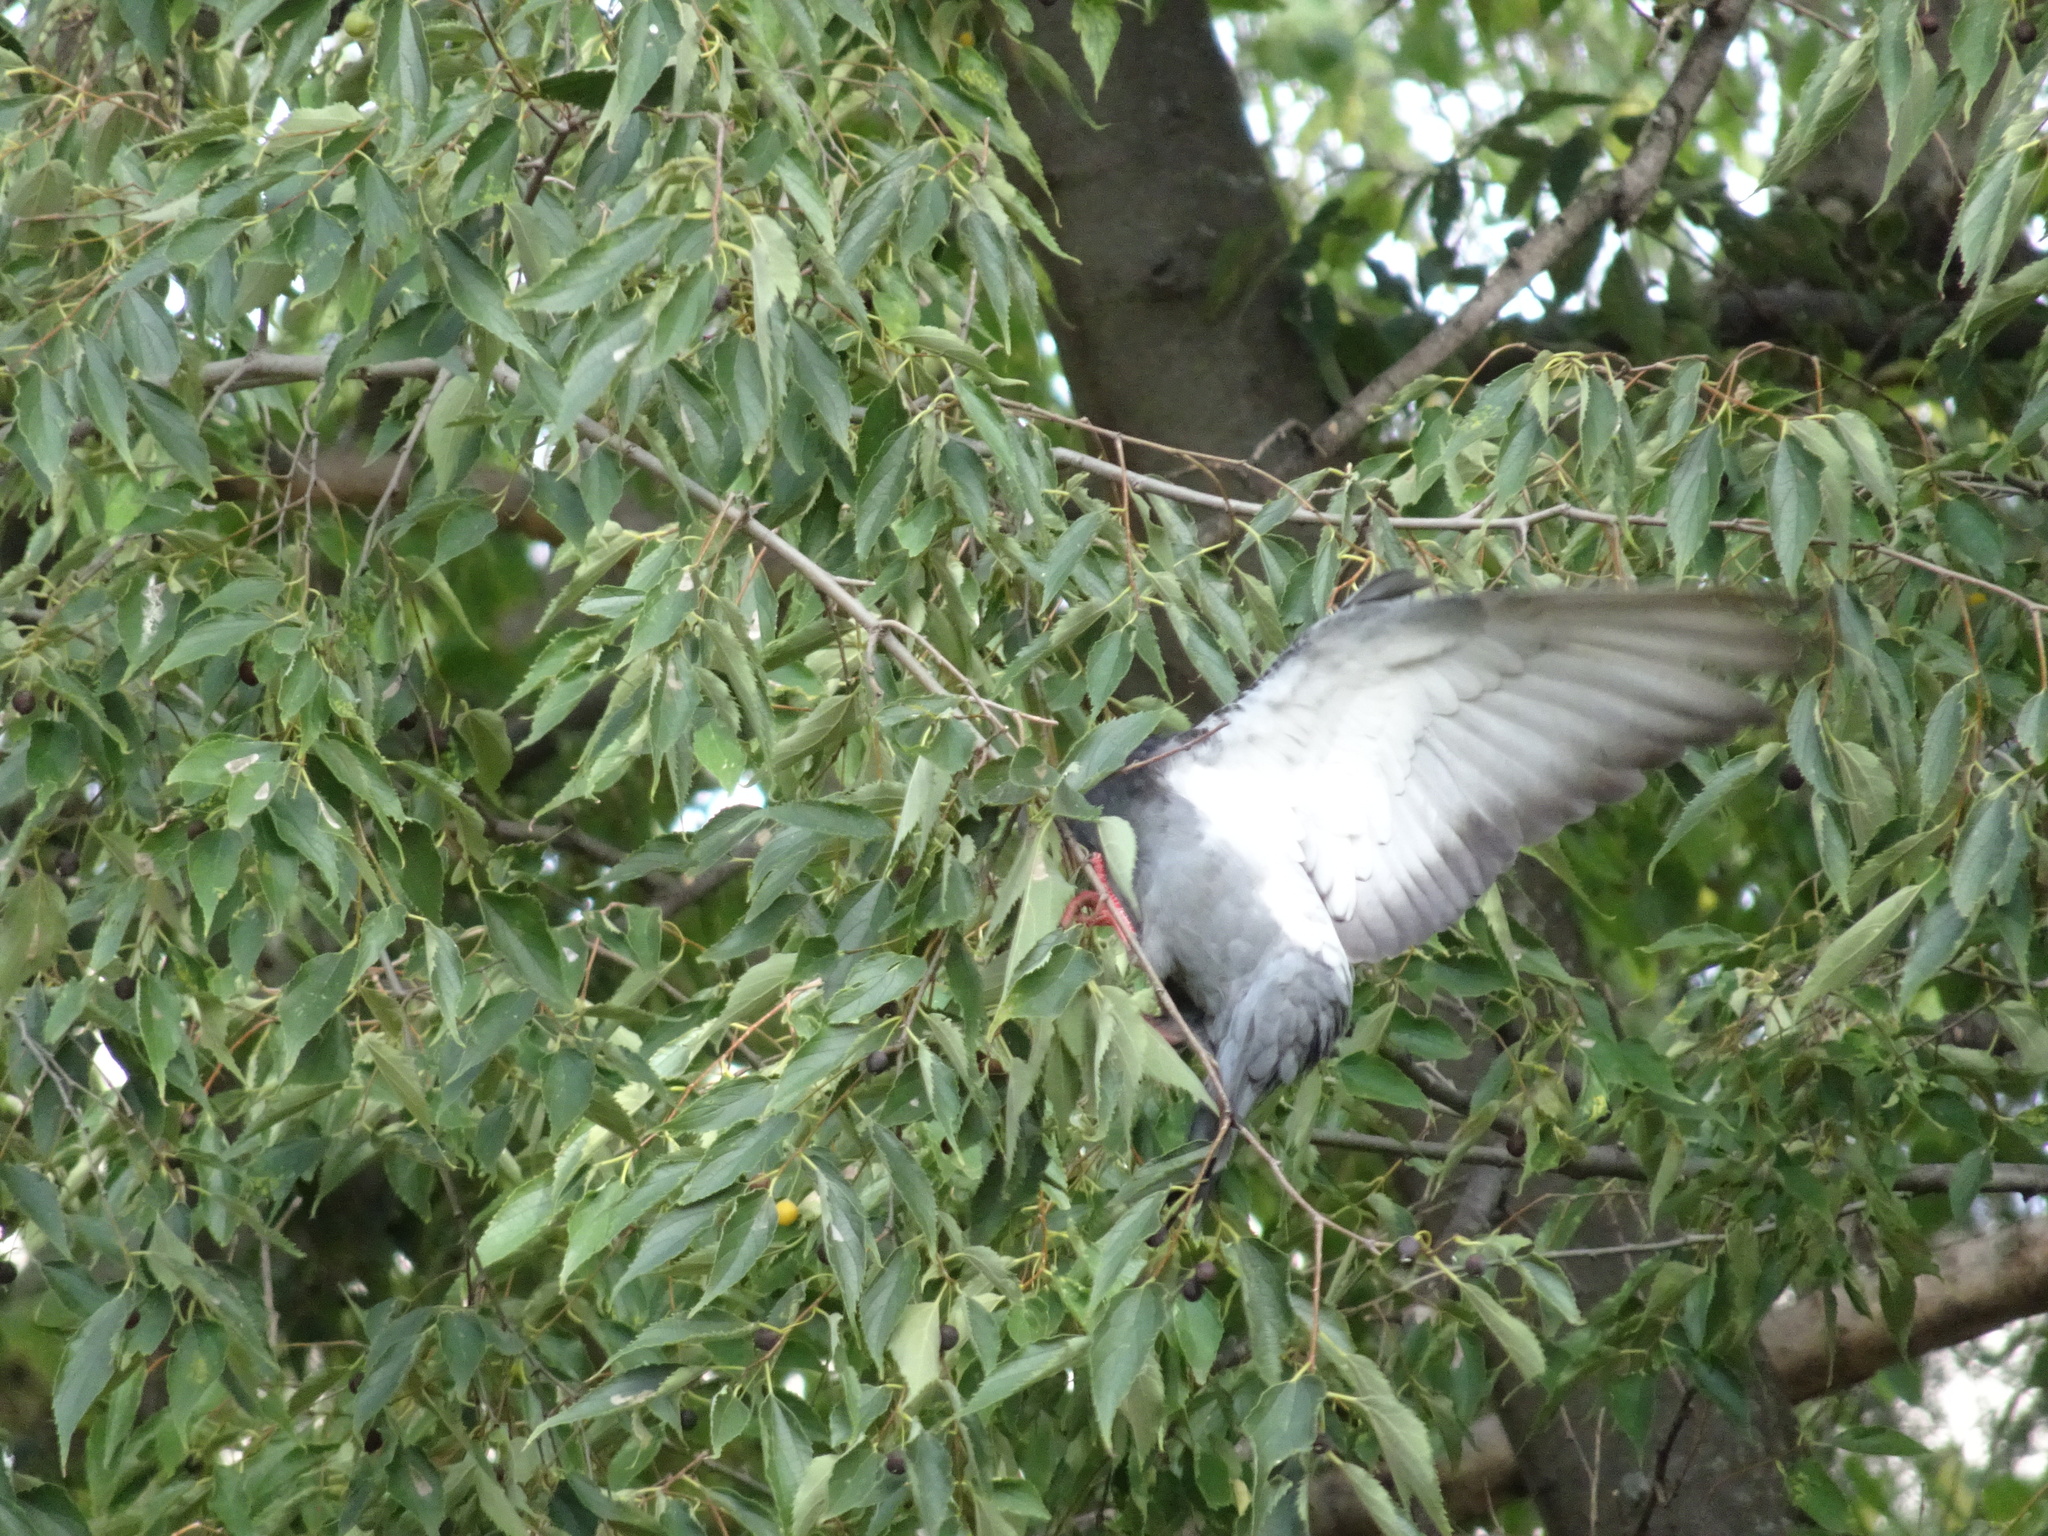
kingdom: Animalia
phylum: Chordata
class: Aves
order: Columbiformes
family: Columbidae
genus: Columba
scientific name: Columba livia
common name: Rock pigeon
